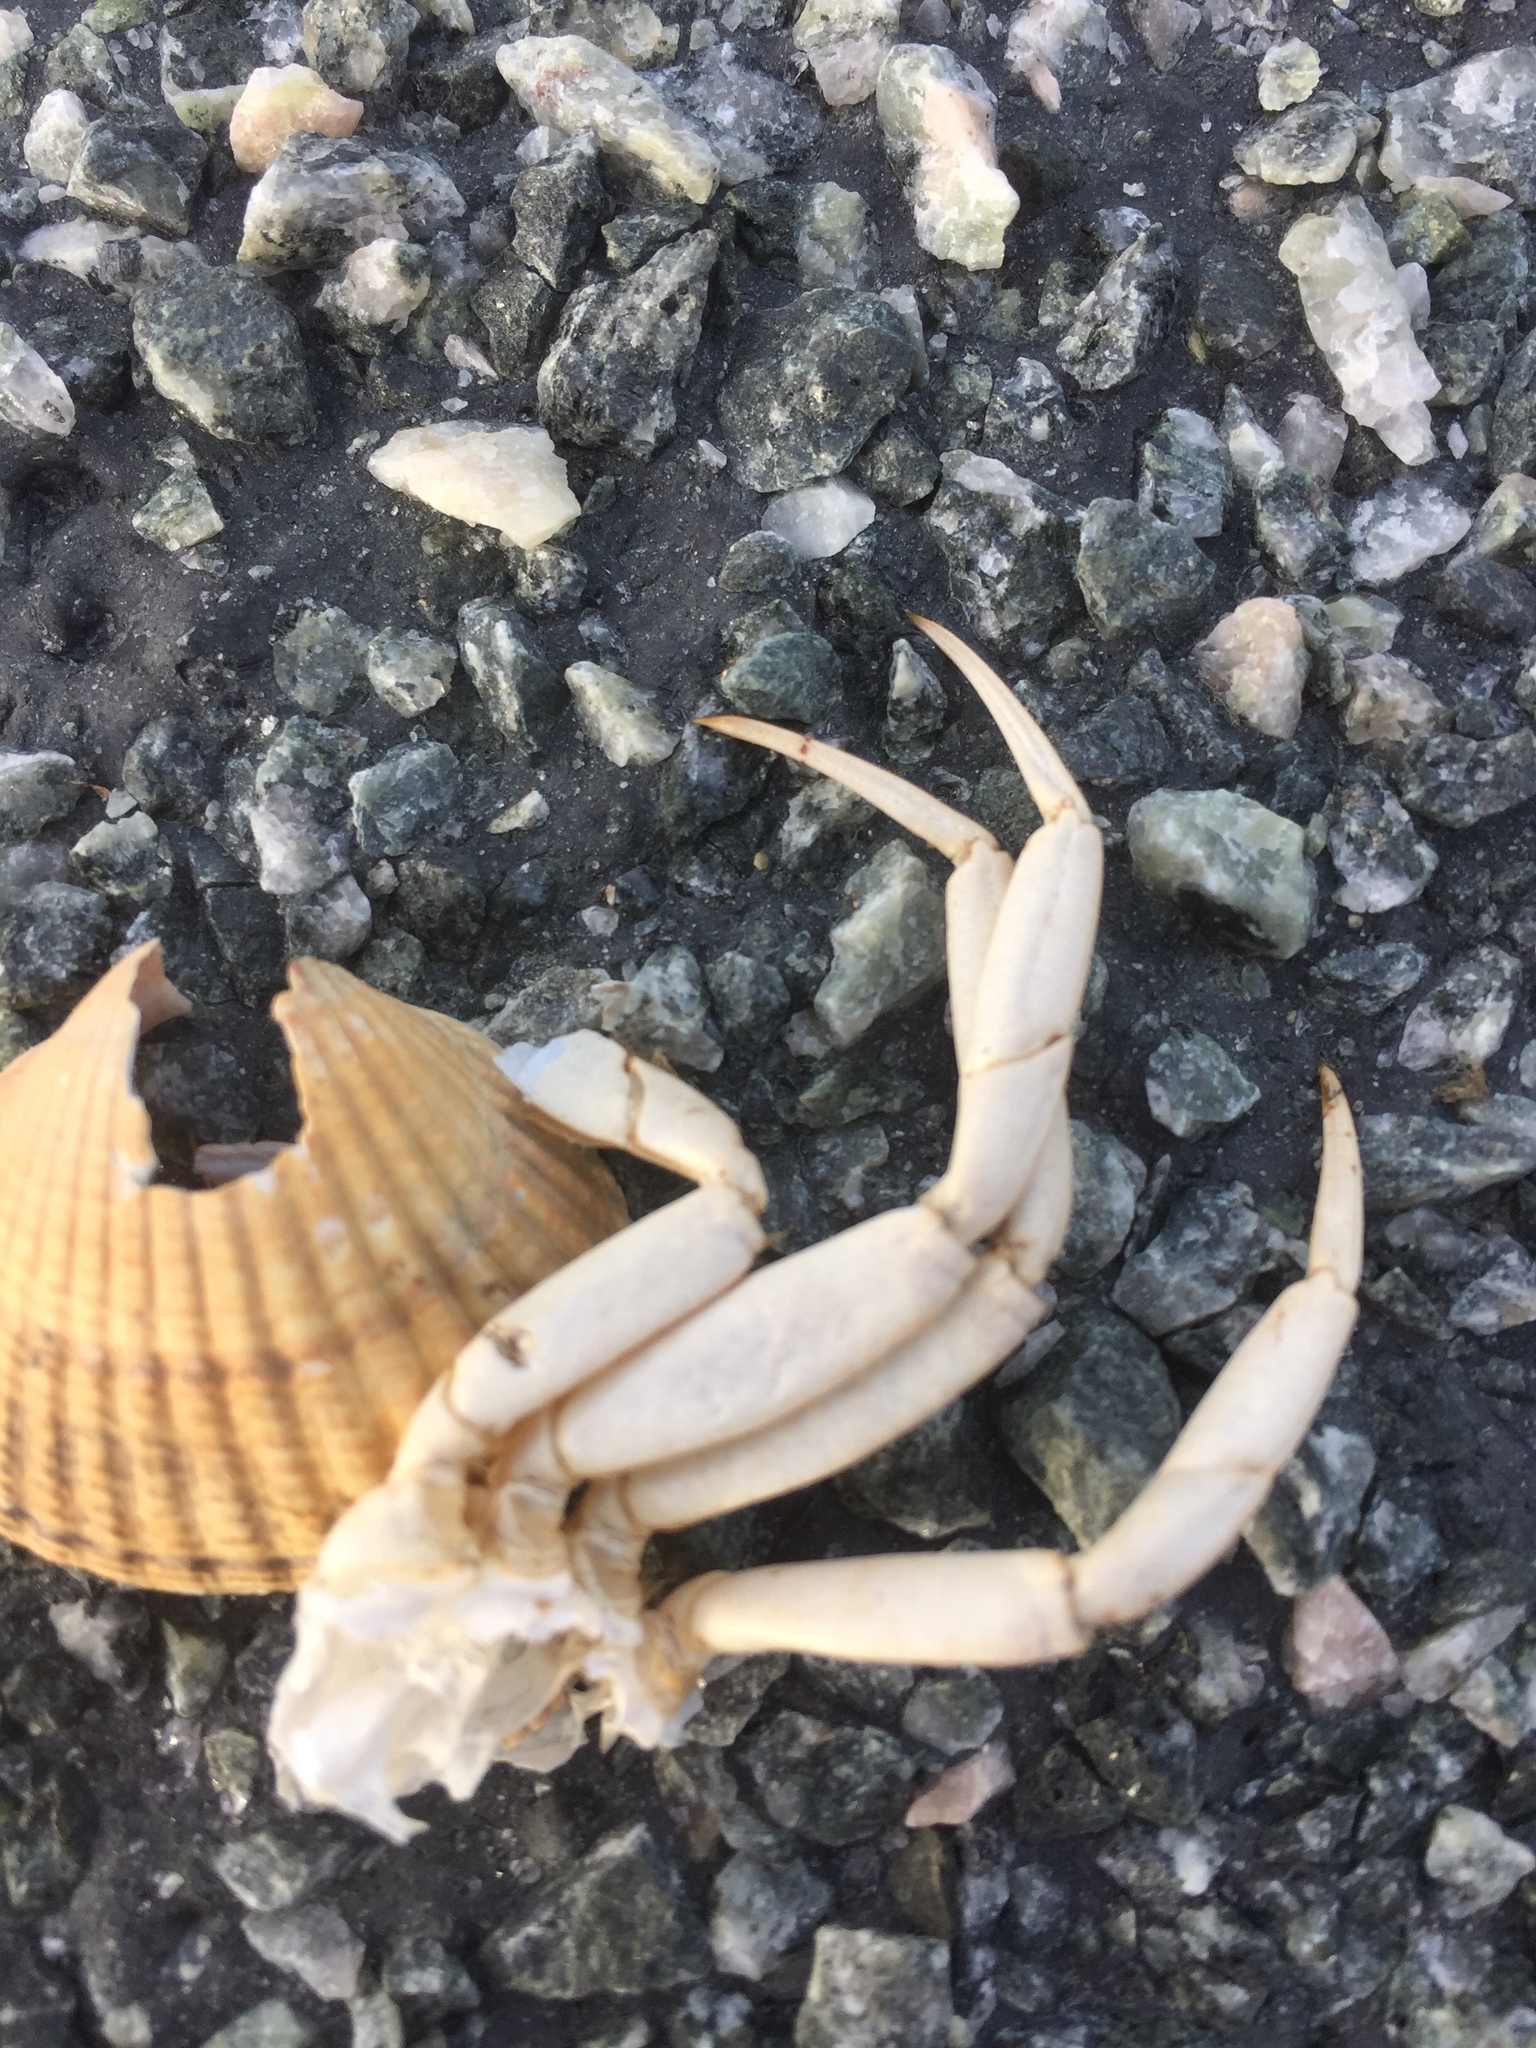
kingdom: Animalia
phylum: Arthropoda
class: Malacostraca
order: Decapoda
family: Carcinidae
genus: Carcinus
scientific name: Carcinus maenas
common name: European green crab
